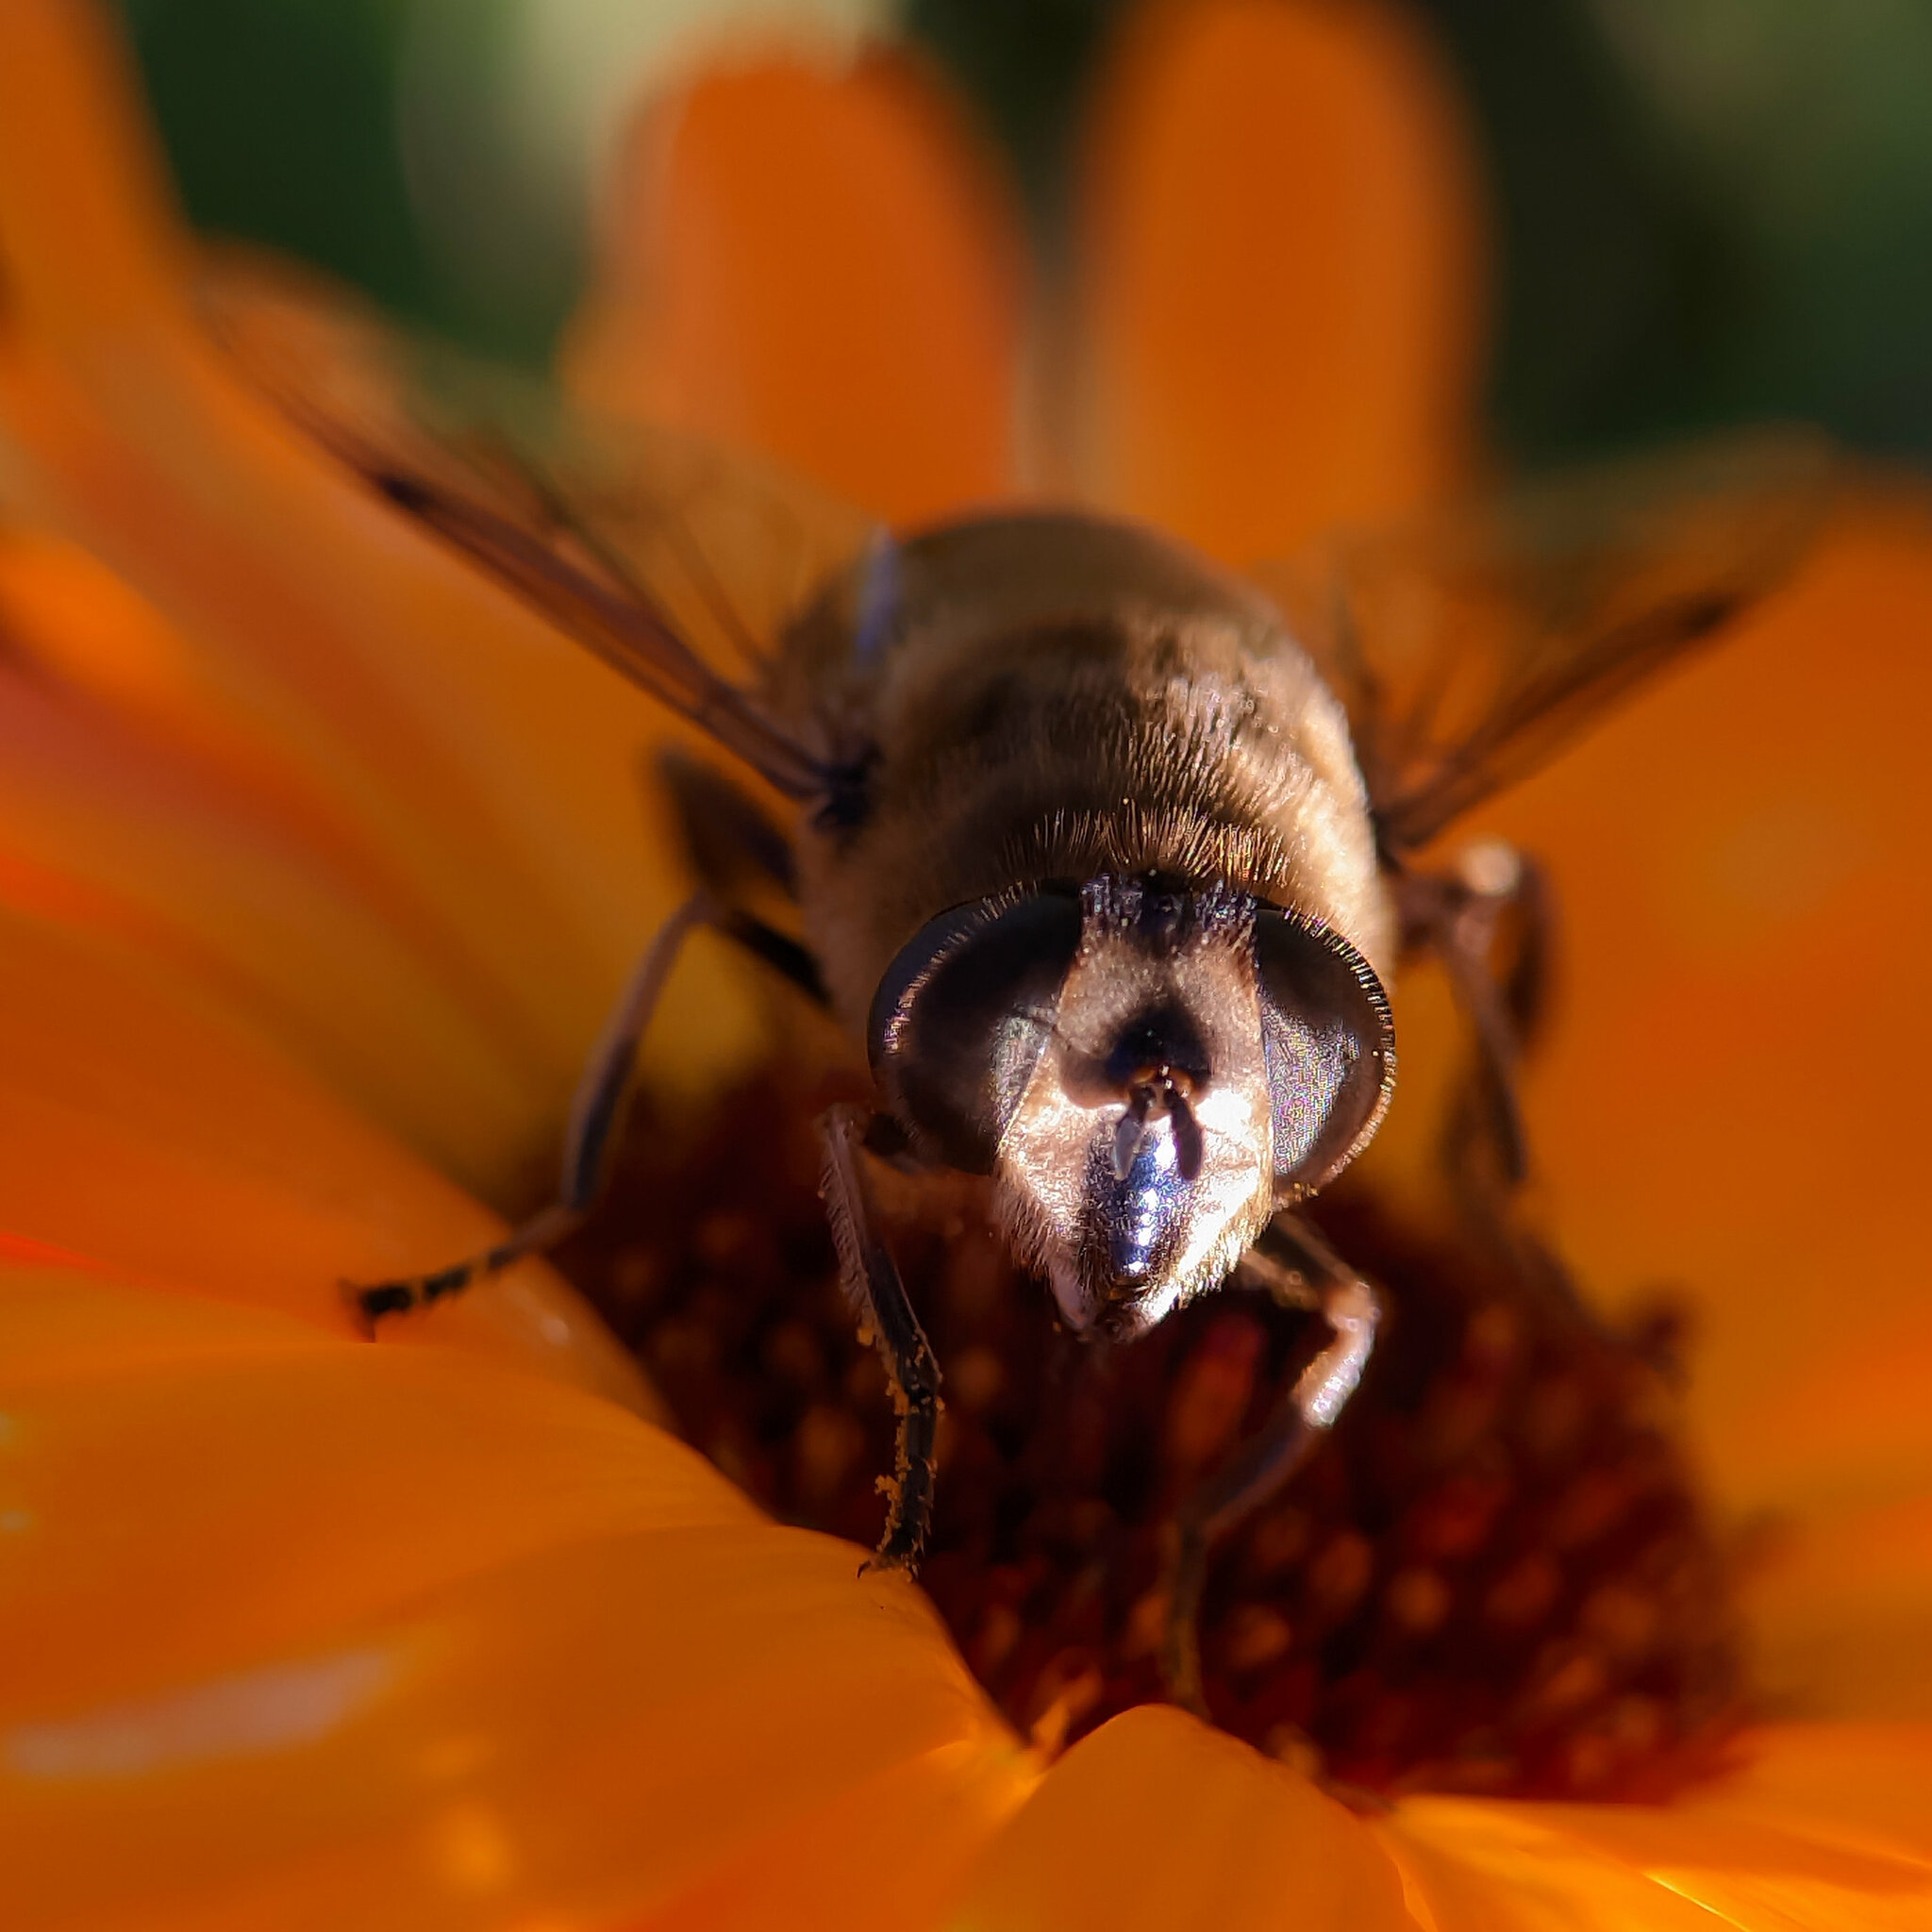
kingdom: Animalia
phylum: Arthropoda
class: Insecta
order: Diptera
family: Syrphidae
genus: Eristalis
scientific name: Eristalis tenax
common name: Drone fly
